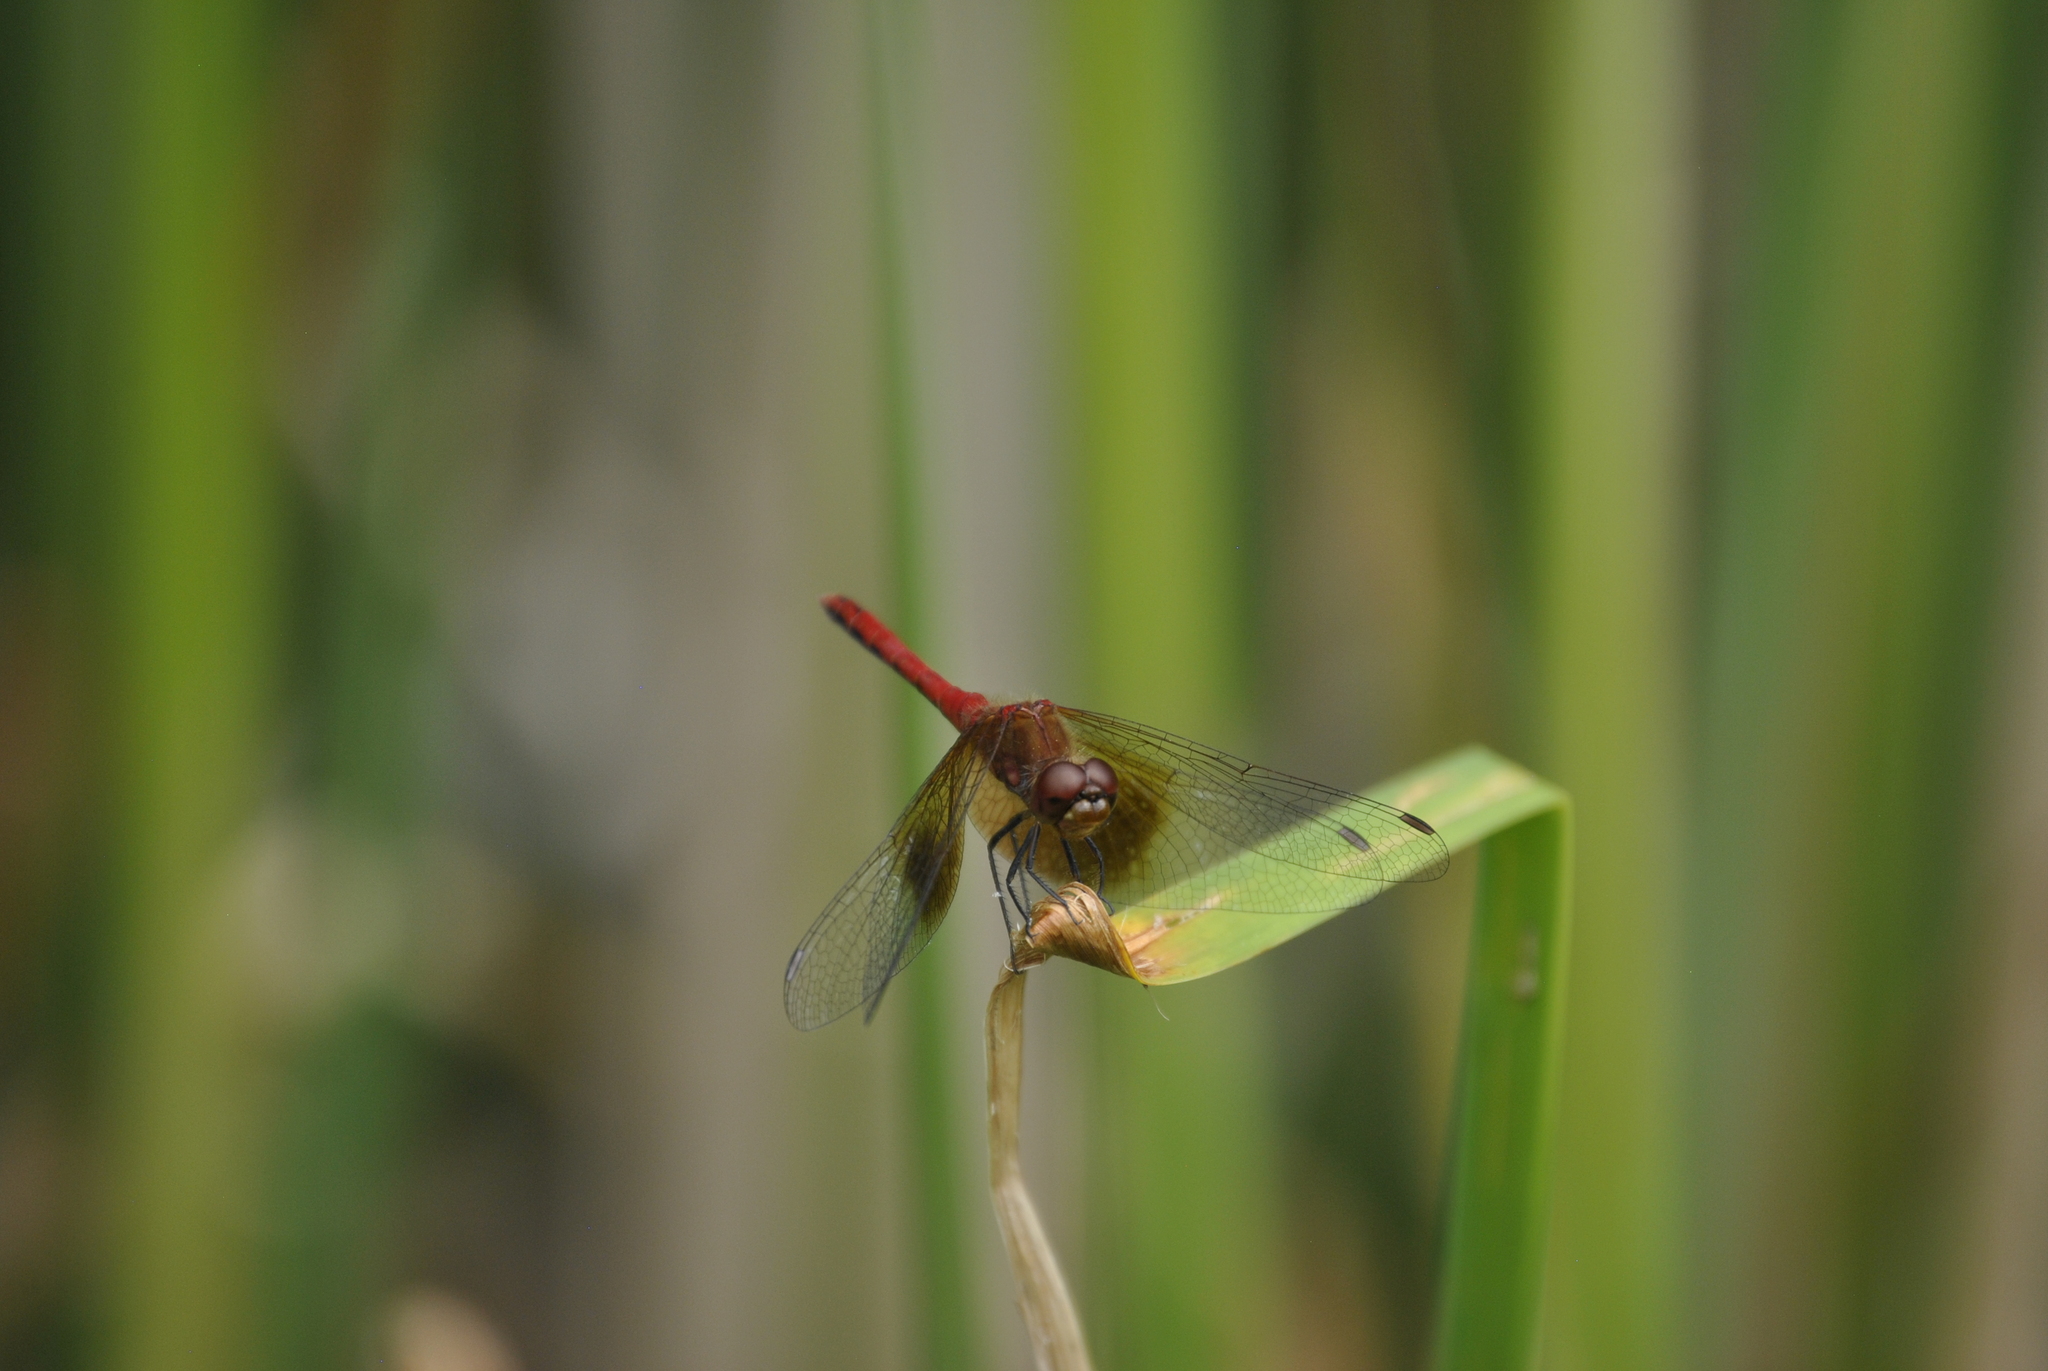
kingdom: Animalia
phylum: Arthropoda
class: Insecta
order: Odonata
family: Libellulidae
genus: Sympetrum
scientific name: Sympetrum semicinctum
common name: Band-winged meadowhawk
